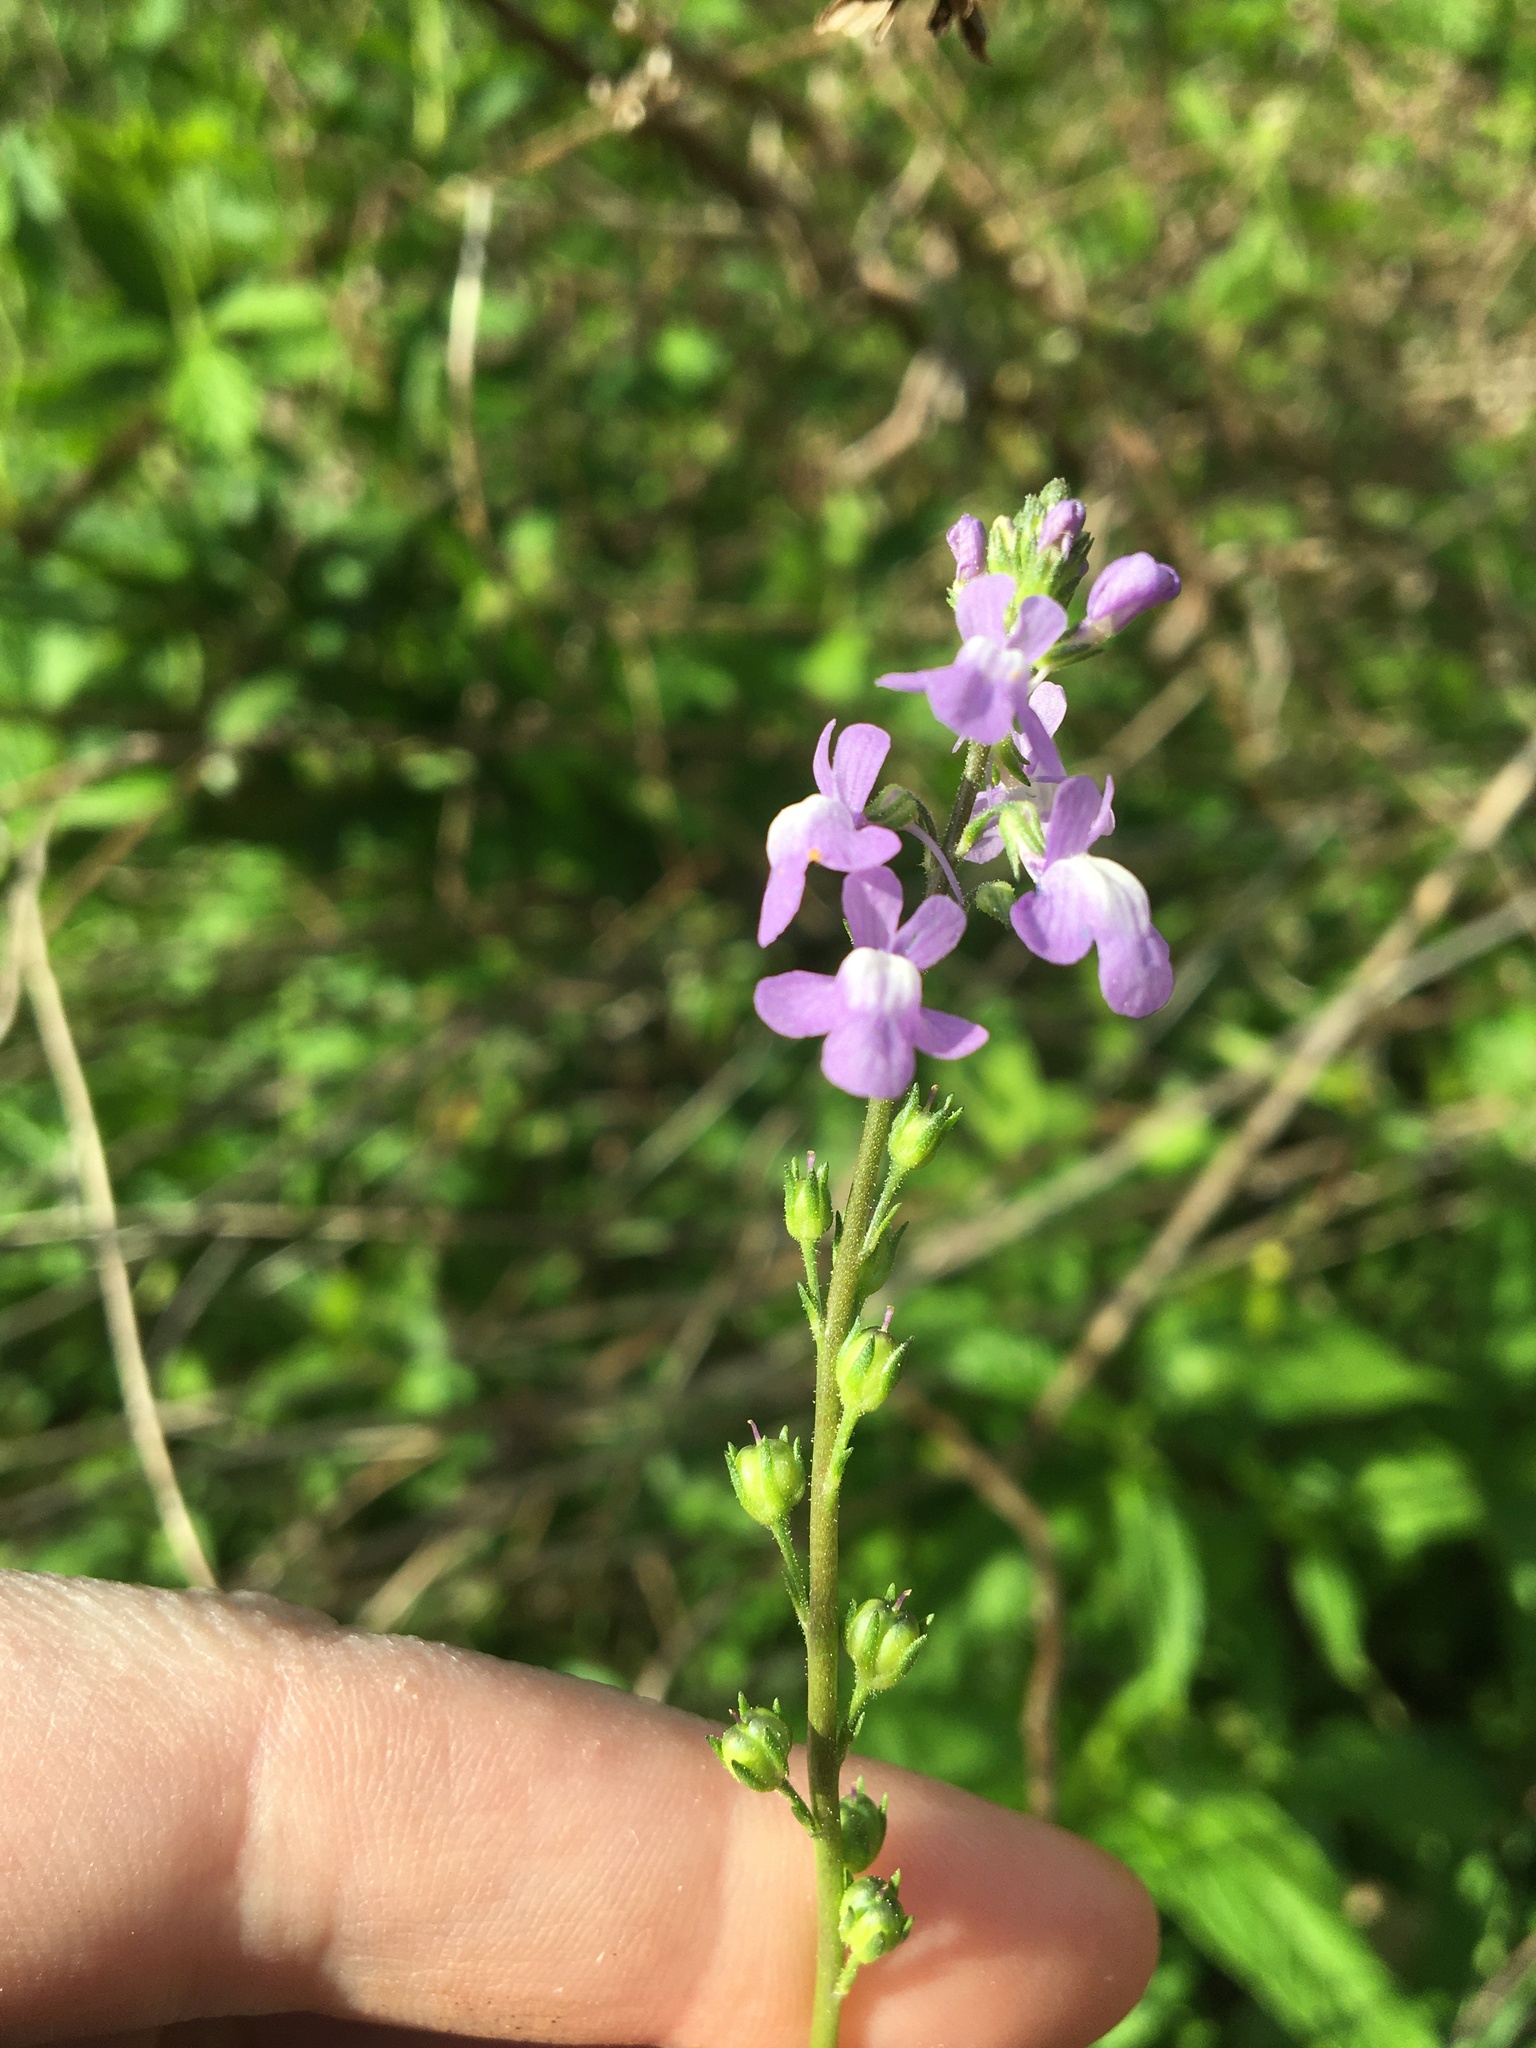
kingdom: Plantae
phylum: Tracheophyta
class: Magnoliopsida
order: Lamiales
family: Plantaginaceae
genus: Nuttallanthus
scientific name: Nuttallanthus canadensis
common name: Blue toadflax
